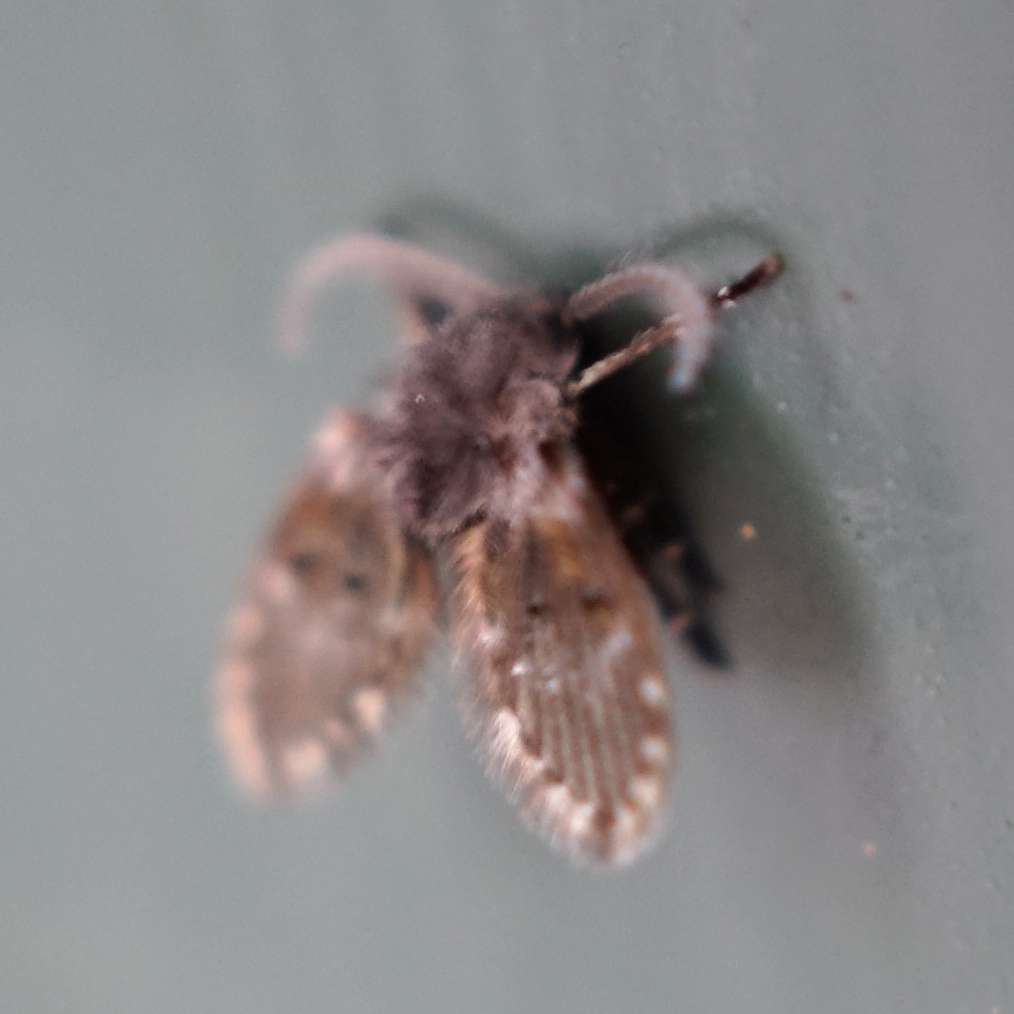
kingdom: Animalia
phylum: Arthropoda
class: Insecta
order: Diptera
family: Psychodidae
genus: Clogmia
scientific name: Clogmia albipunctatus
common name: White-spotted moth fly
